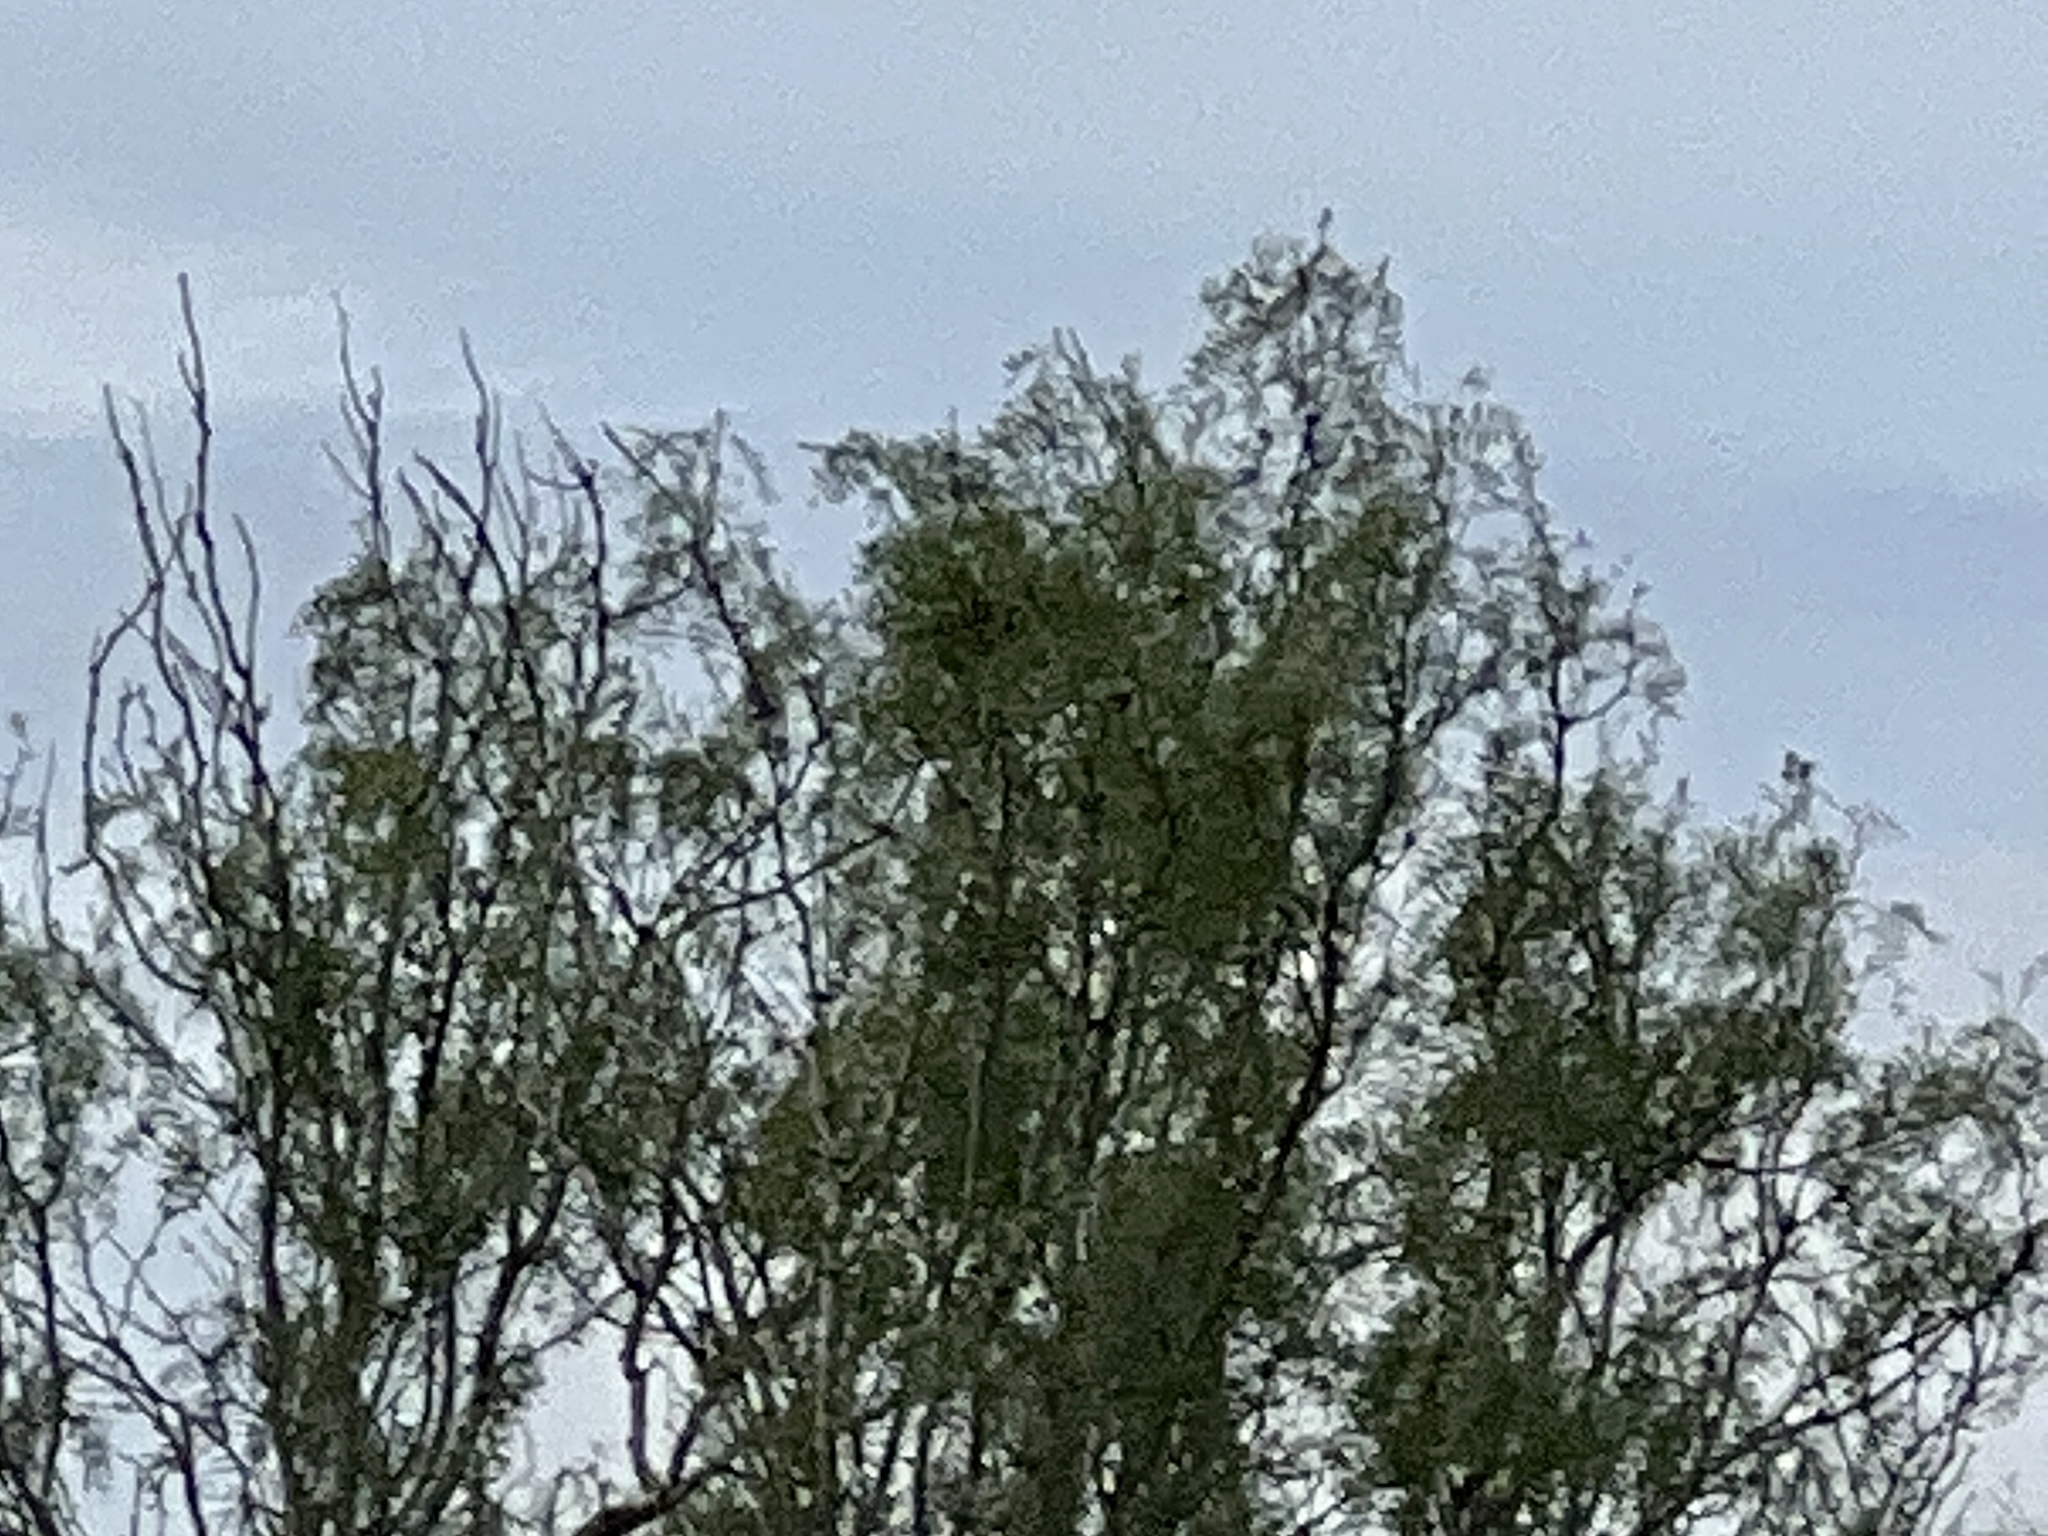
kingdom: Plantae
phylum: Tracheophyta
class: Magnoliopsida
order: Fabales
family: Fabaceae
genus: Prosopis
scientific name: Prosopis glandulosa
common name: Honey mesquite
